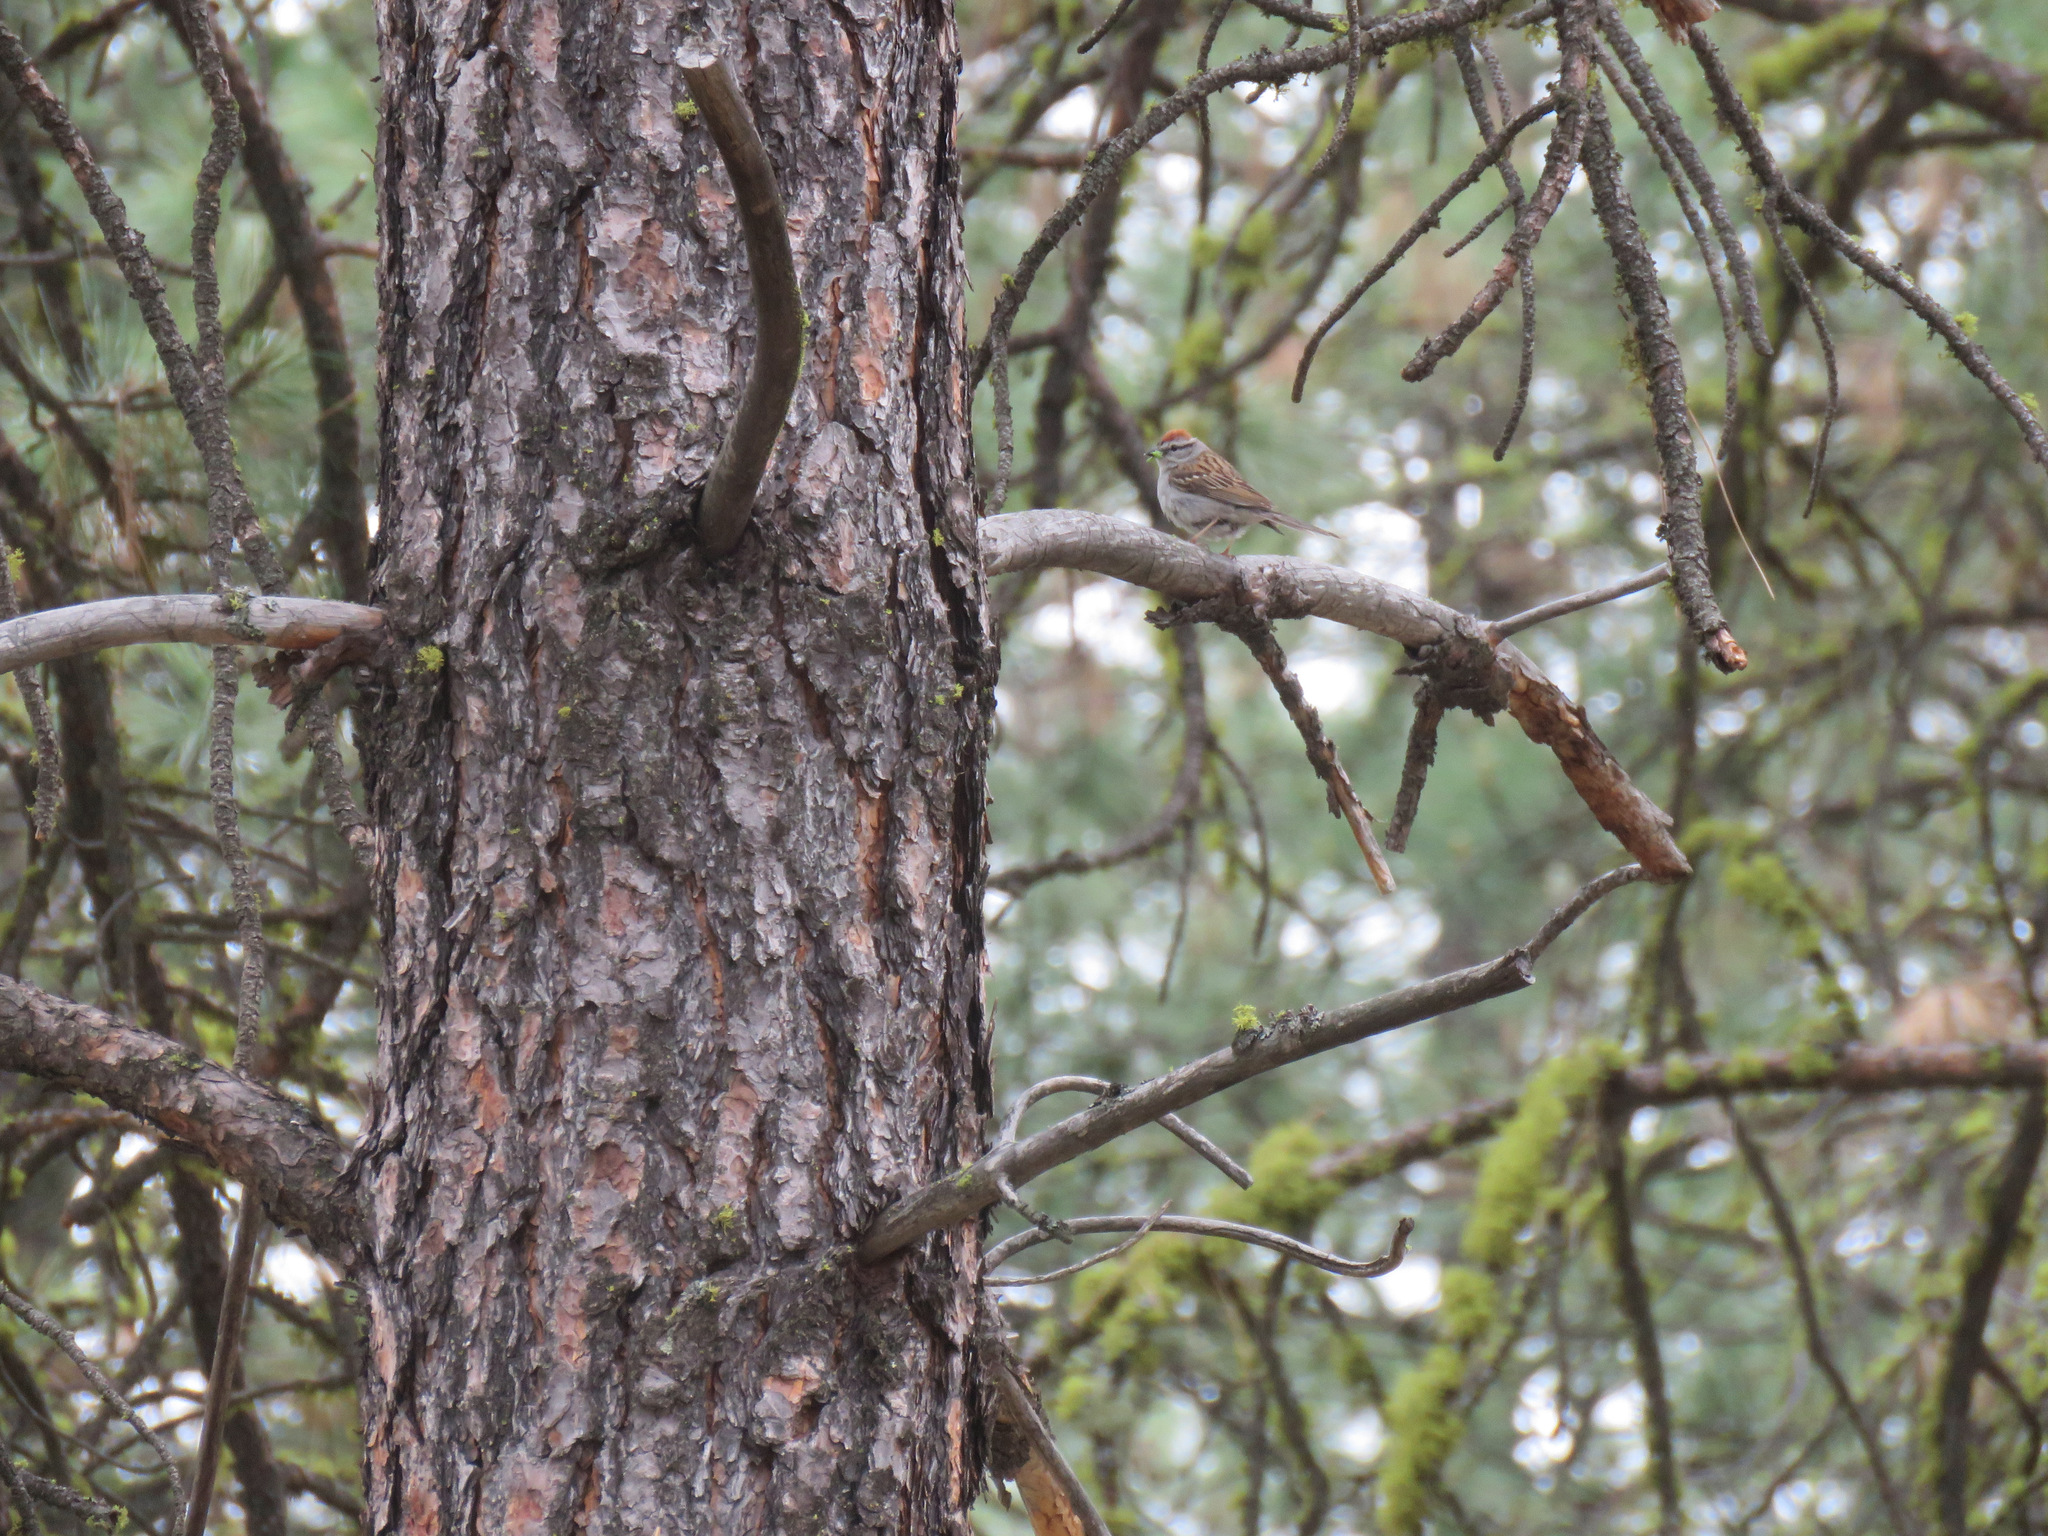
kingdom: Animalia
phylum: Chordata
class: Aves
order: Passeriformes
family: Passerellidae
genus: Spizella
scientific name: Spizella passerina
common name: Chipping sparrow
